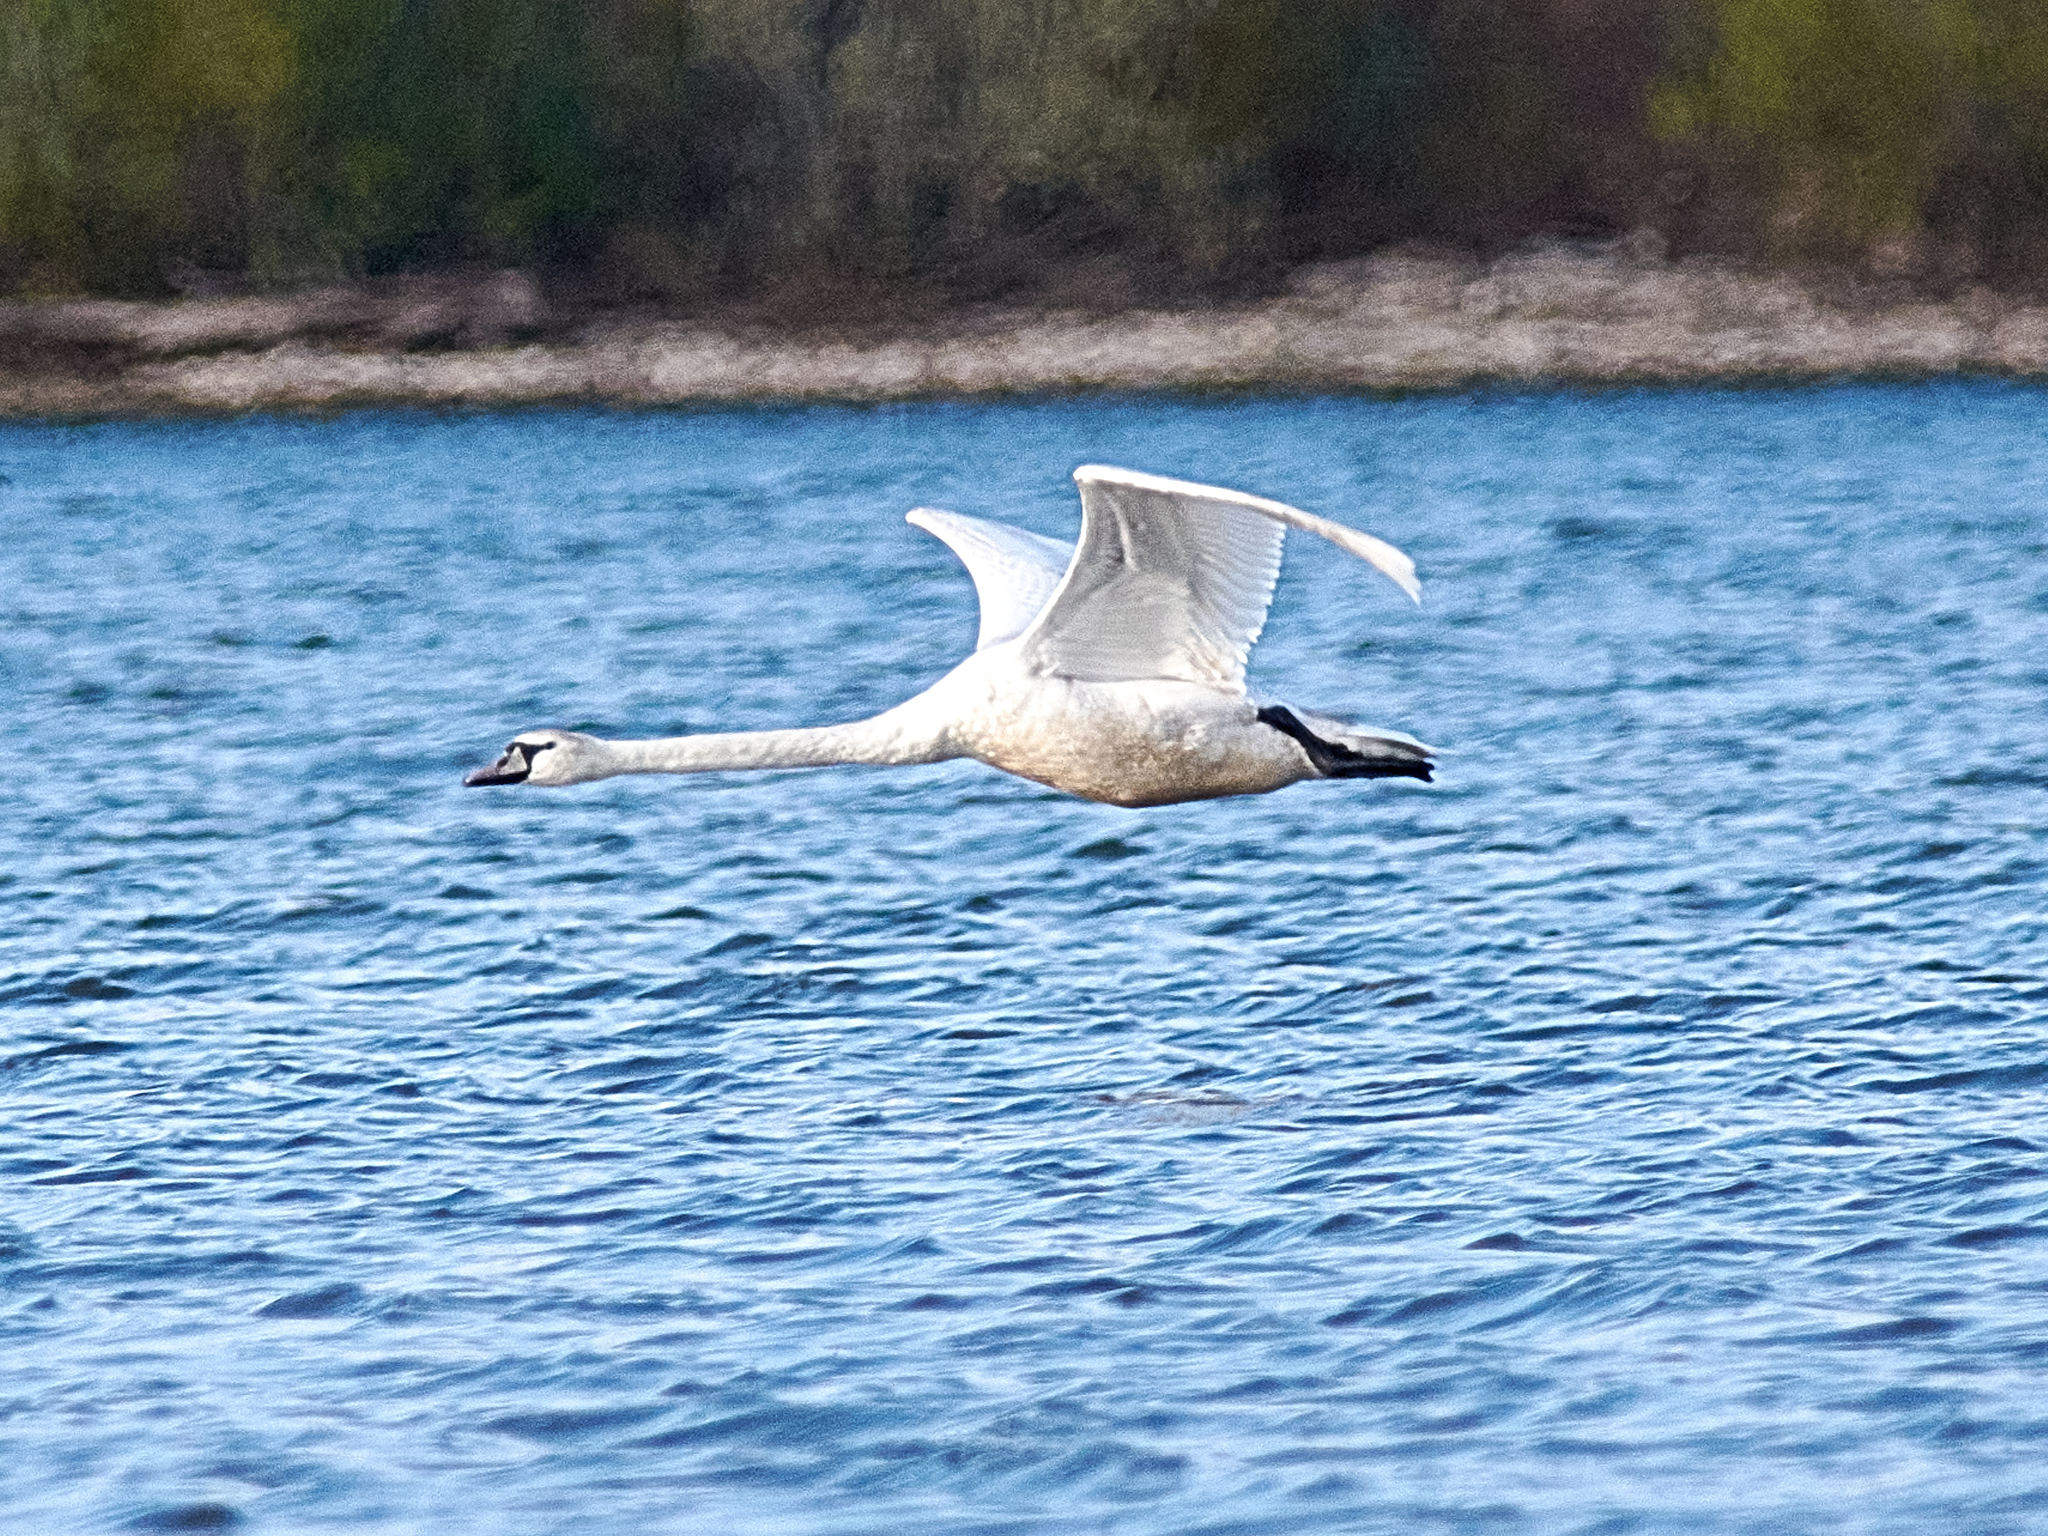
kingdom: Animalia
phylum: Chordata
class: Aves
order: Anseriformes
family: Anatidae
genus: Cygnus
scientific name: Cygnus olor
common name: Mute swan
